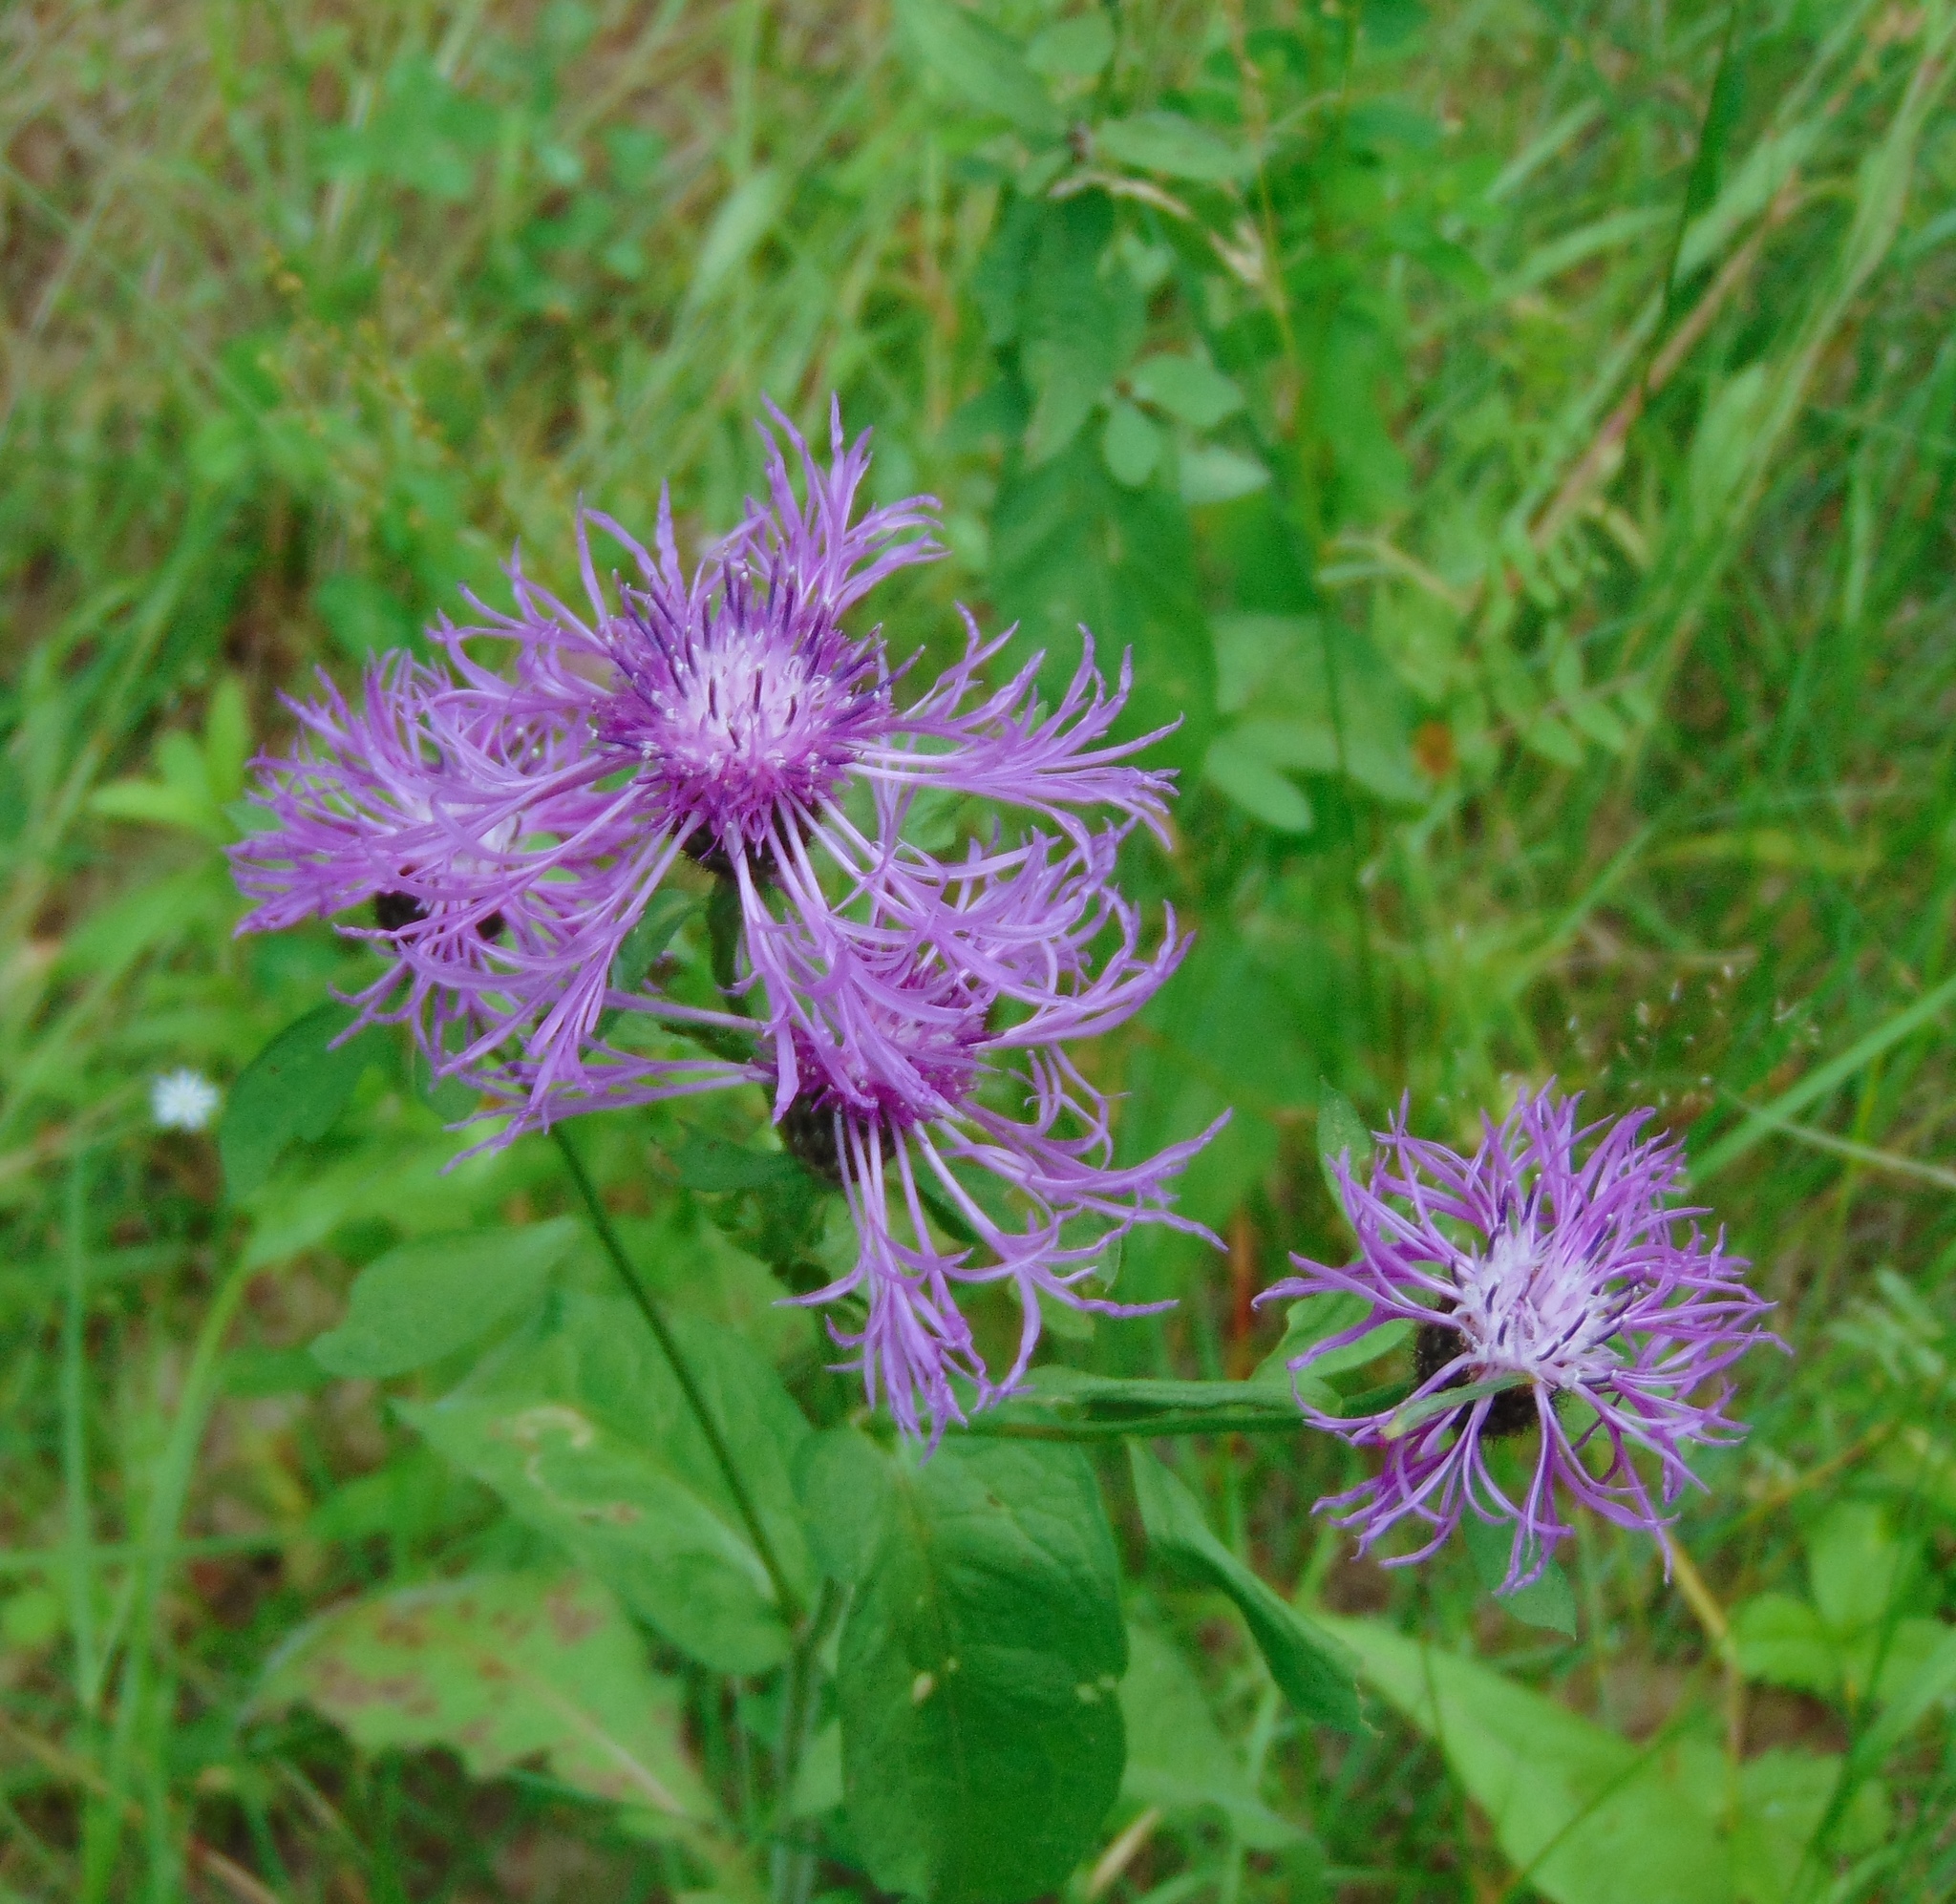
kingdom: Plantae
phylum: Tracheophyta
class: Magnoliopsida
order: Asterales
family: Asteraceae
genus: Centaurea
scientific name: Centaurea phrygia
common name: Wig knapweed
